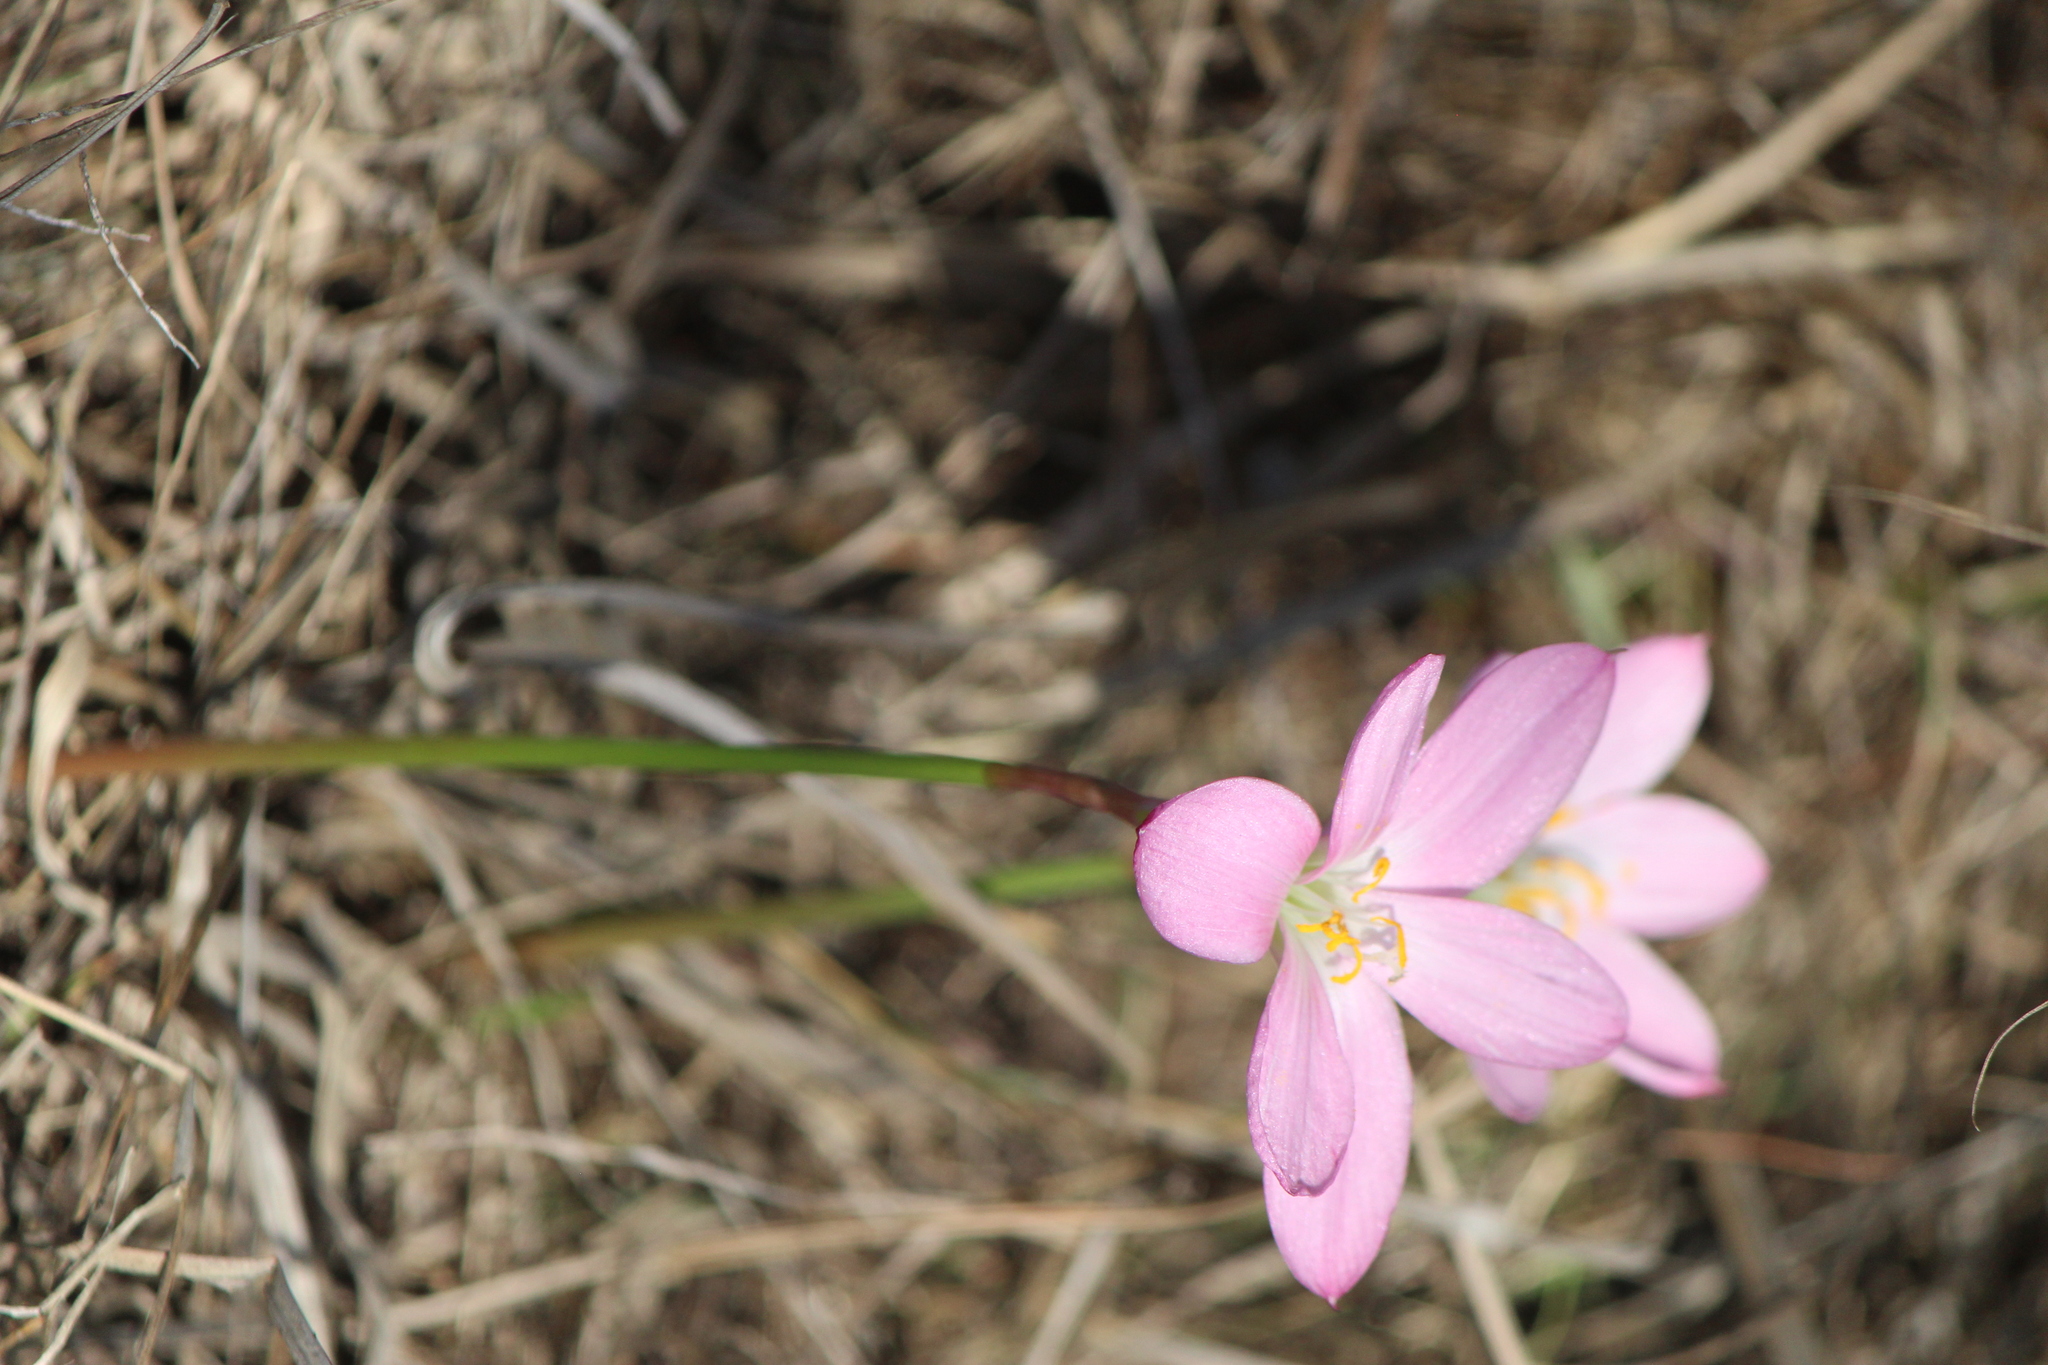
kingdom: Plantae
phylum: Tracheophyta
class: Liliopsida
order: Asparagales
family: Amaryllidaceae
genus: Zephyranthes
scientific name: Zephyranthes carinata
